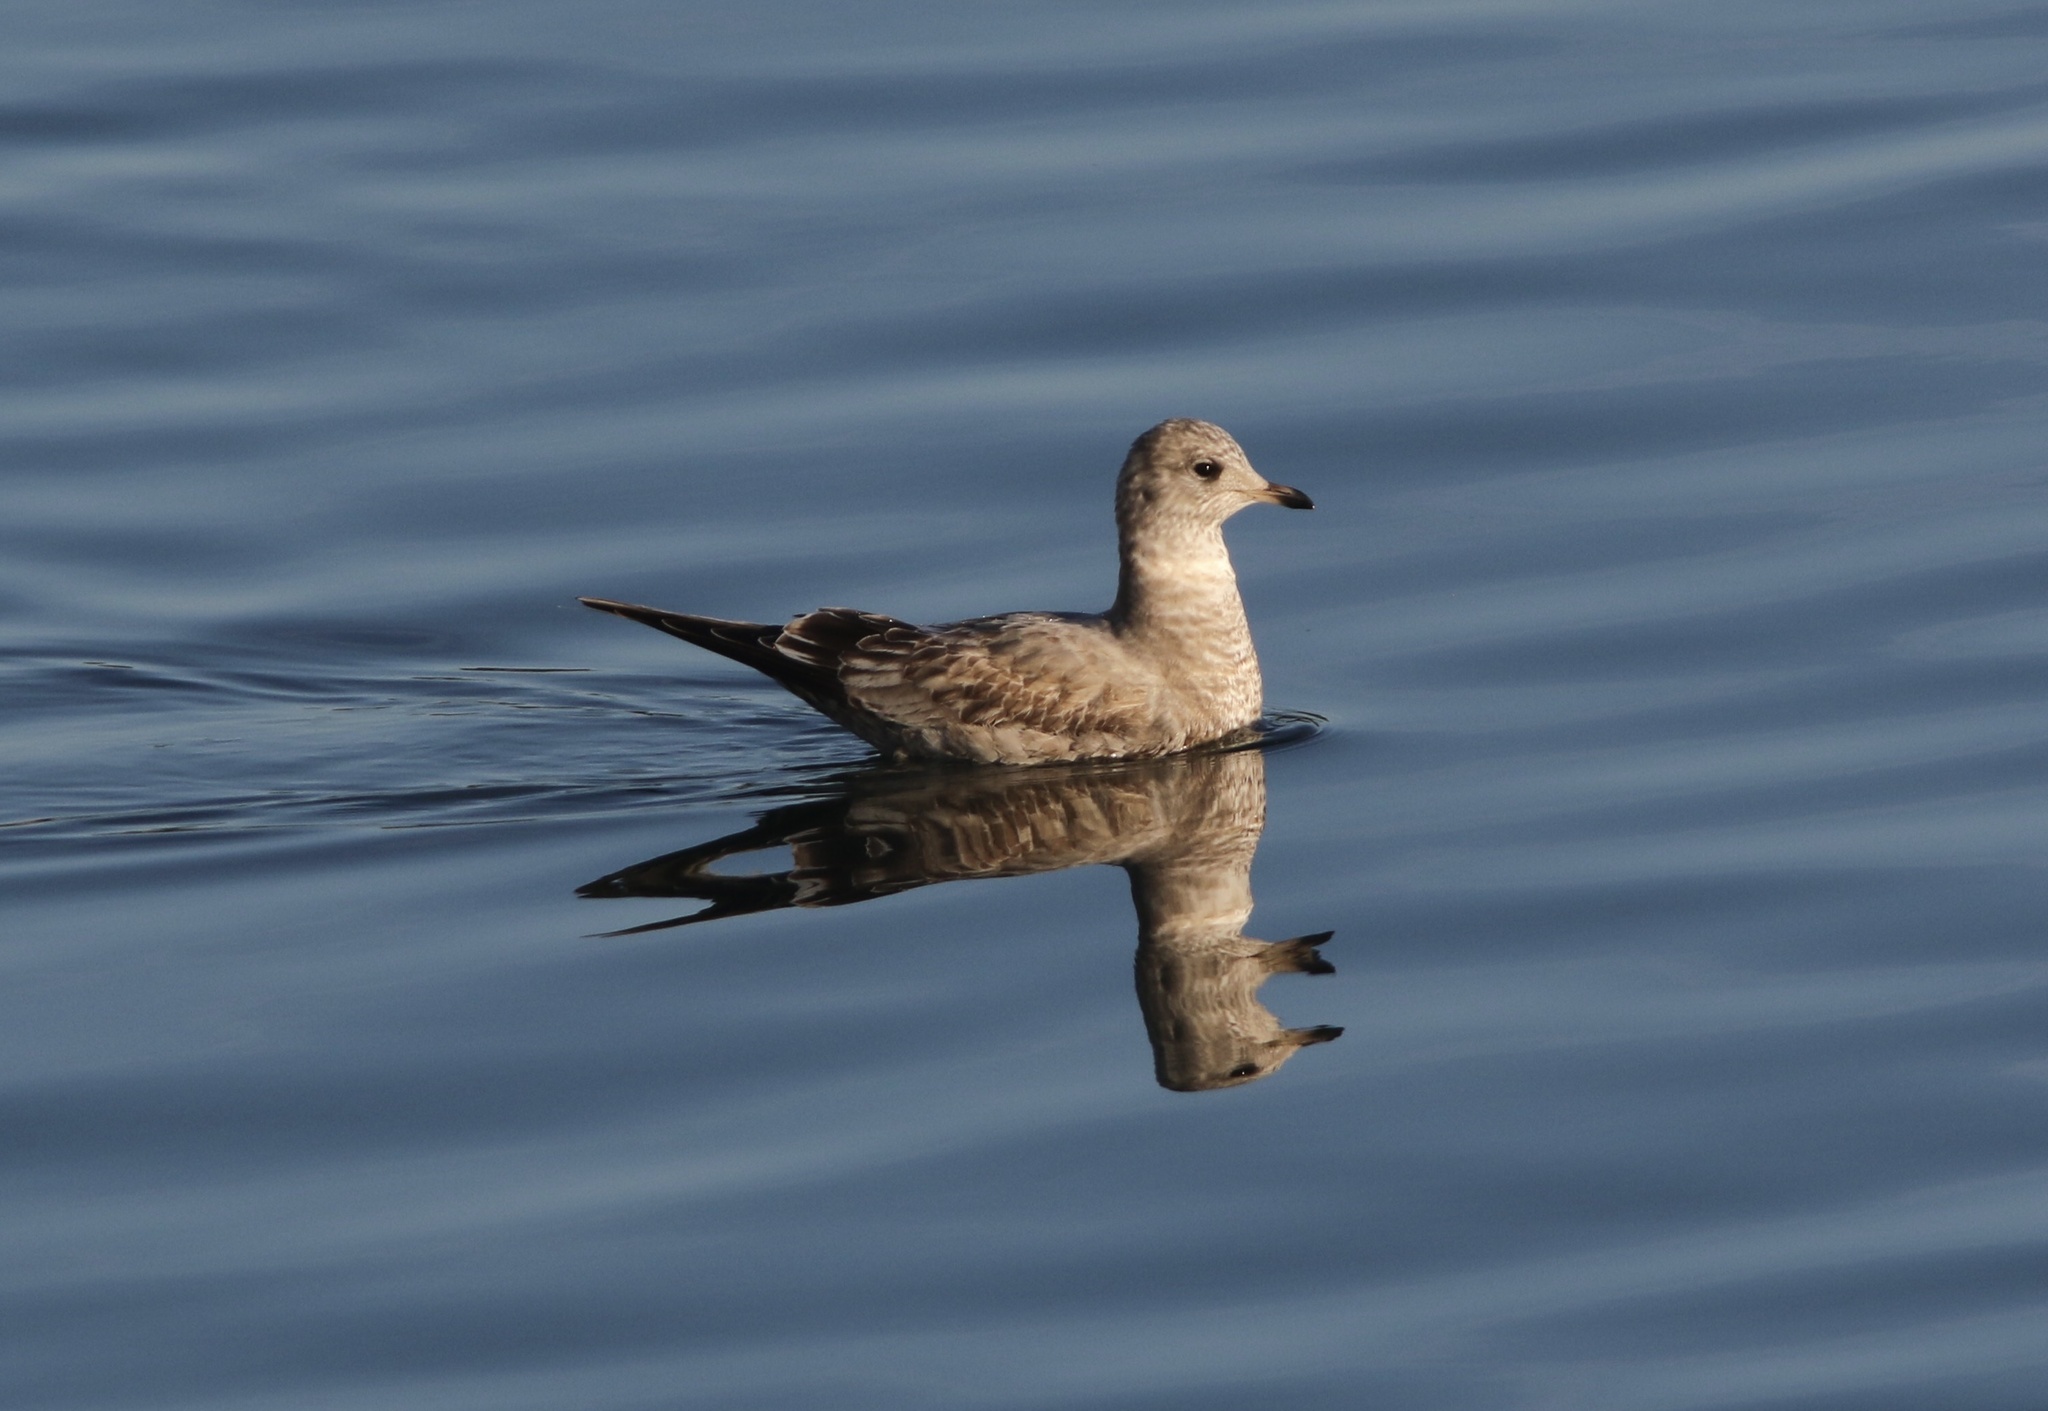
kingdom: Animalia
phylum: Chordata
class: Aves
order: Charadriiformes
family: Laridae
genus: Larus
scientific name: Larus brachyrhynchus
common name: Short-billed gull
